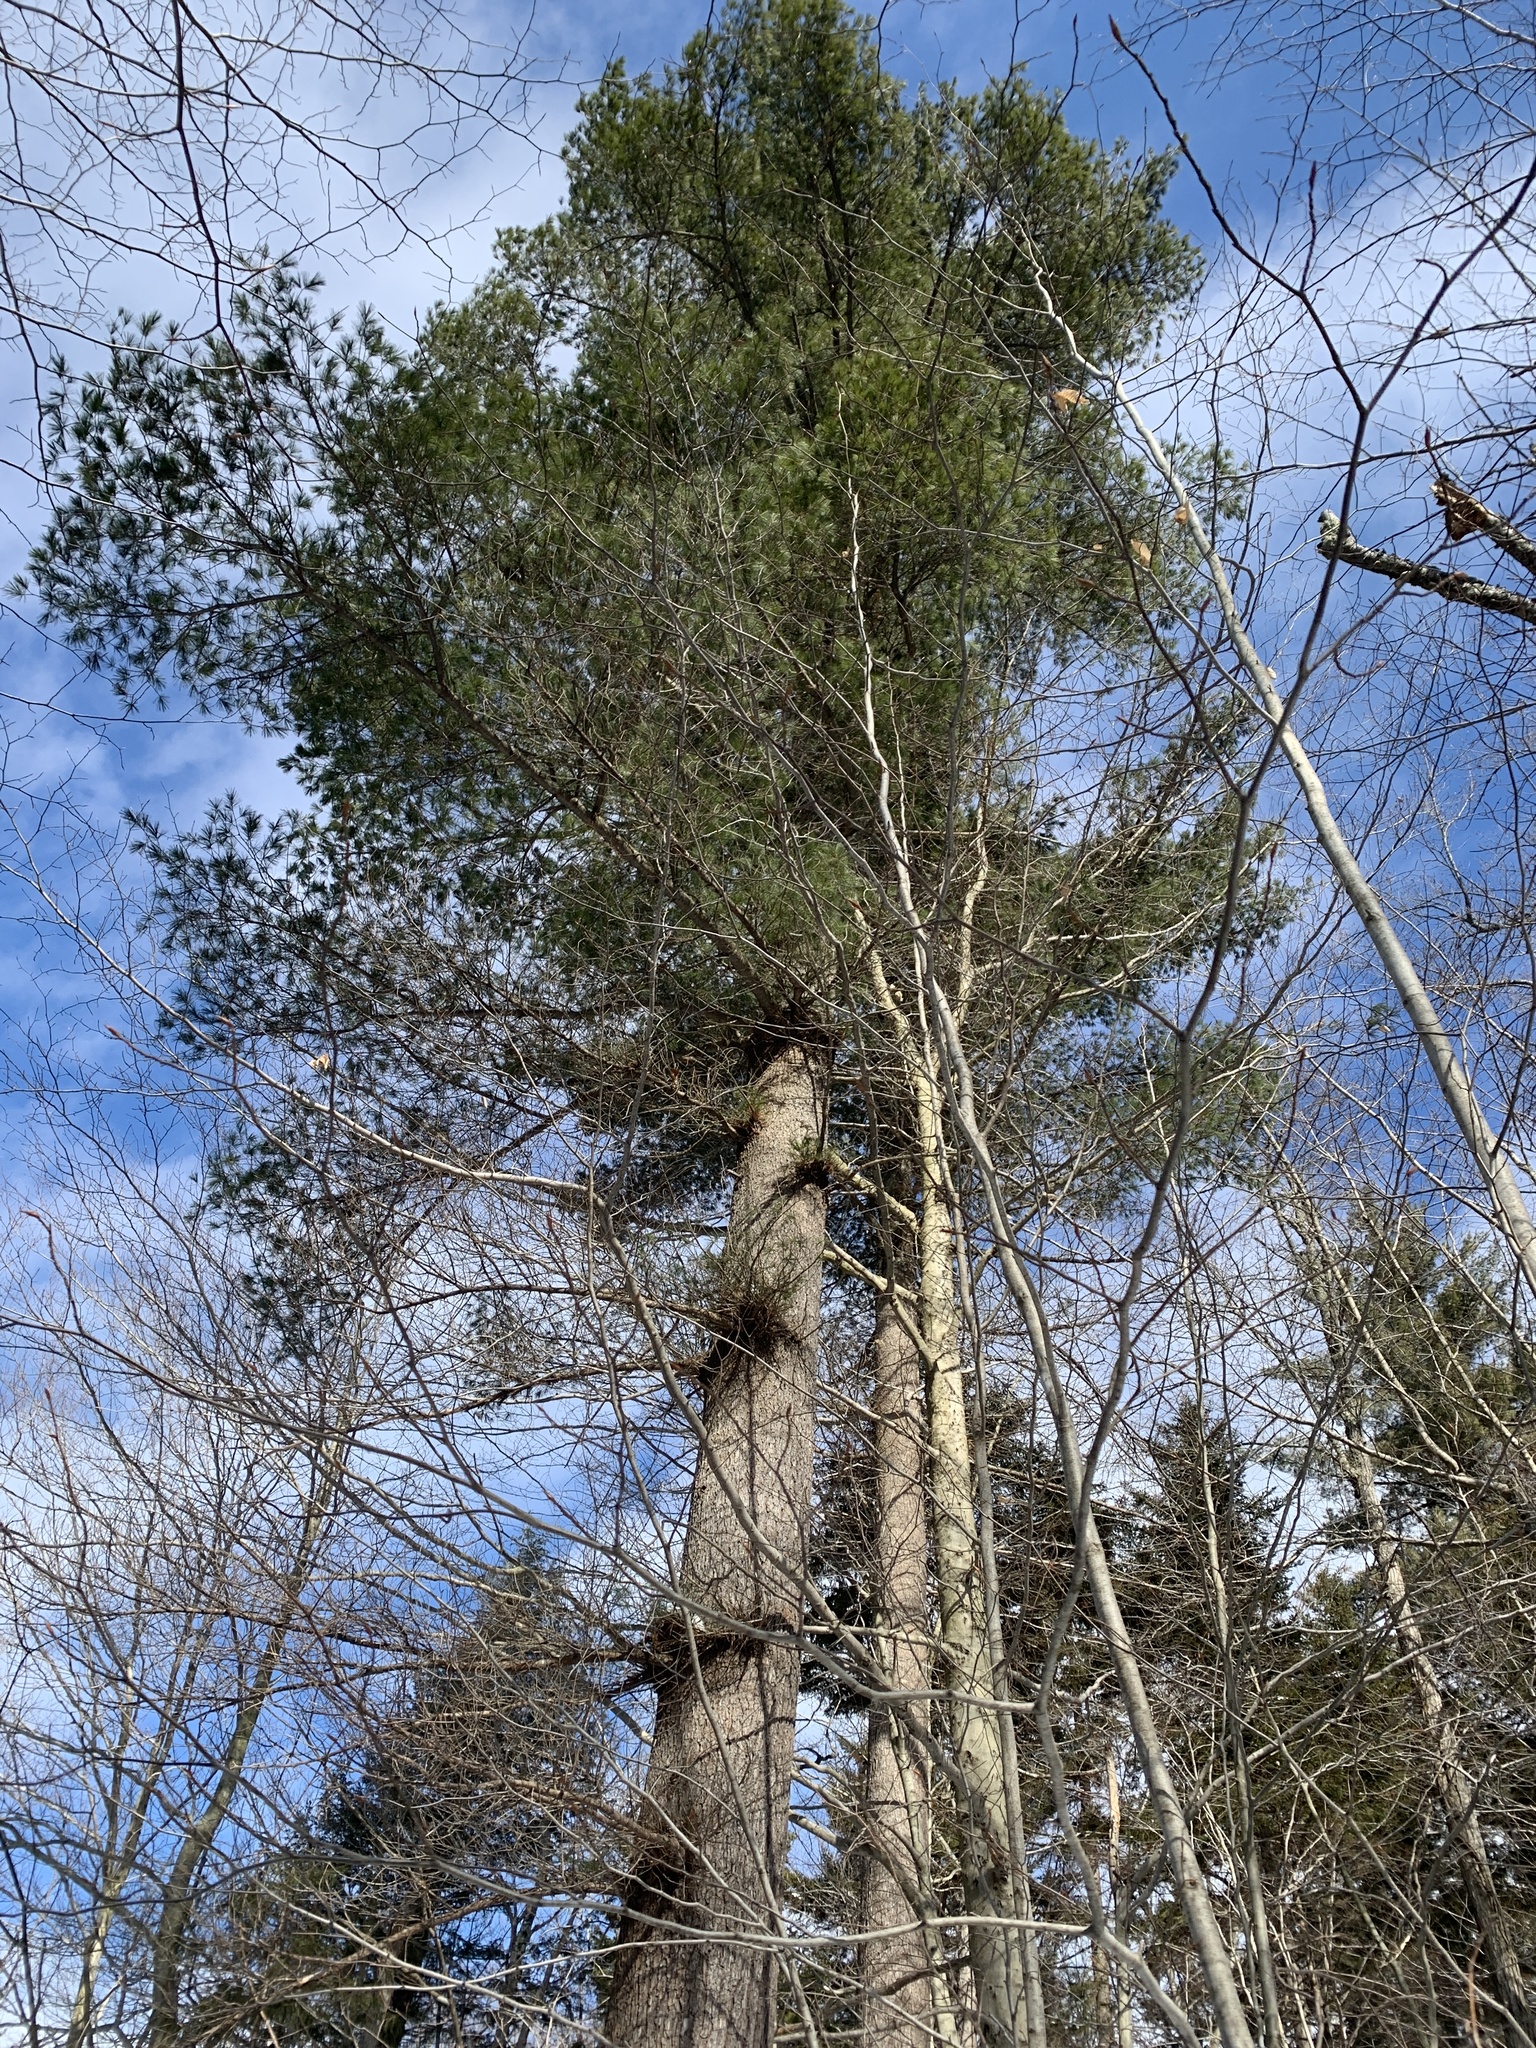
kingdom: Plantae
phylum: Tracheophyta
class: Pinopsida
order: Pinales
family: Pinaceae
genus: Pinus
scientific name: Pinus strobus
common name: Weymouth pine
